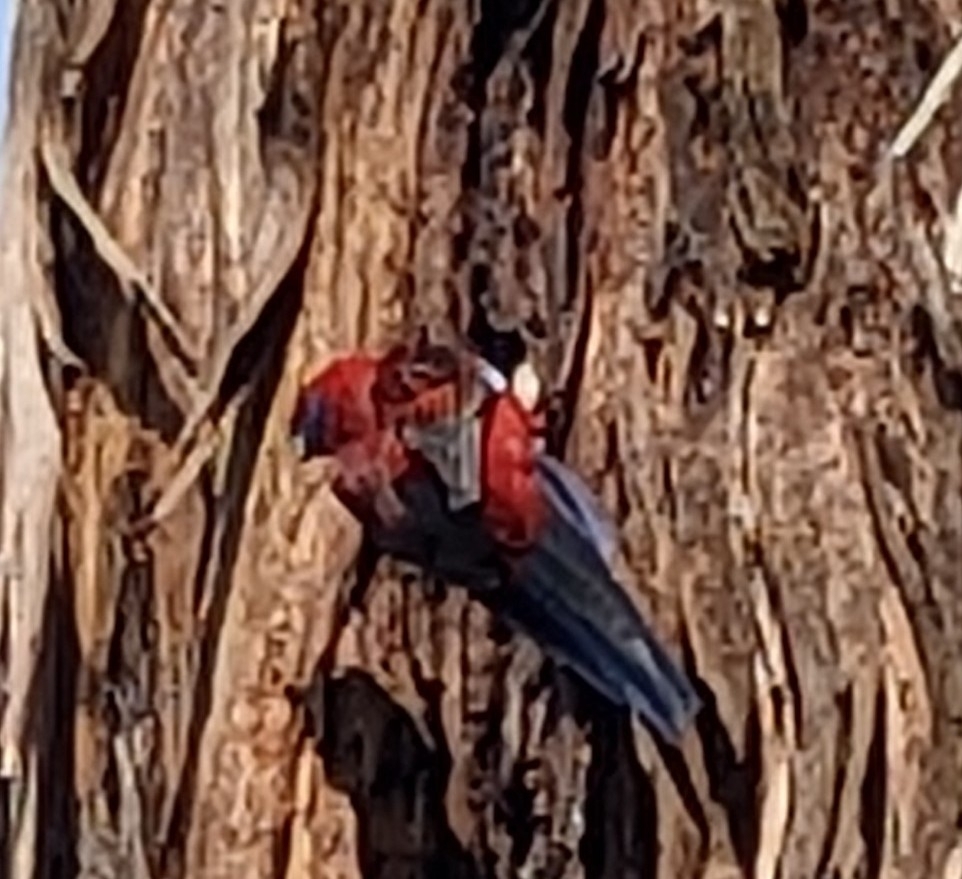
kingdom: Animalia
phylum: Chordata
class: Aves
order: Psittaciformes
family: Psittacidae
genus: Platycercus
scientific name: Platycercus elegans
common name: Crimson rosella
